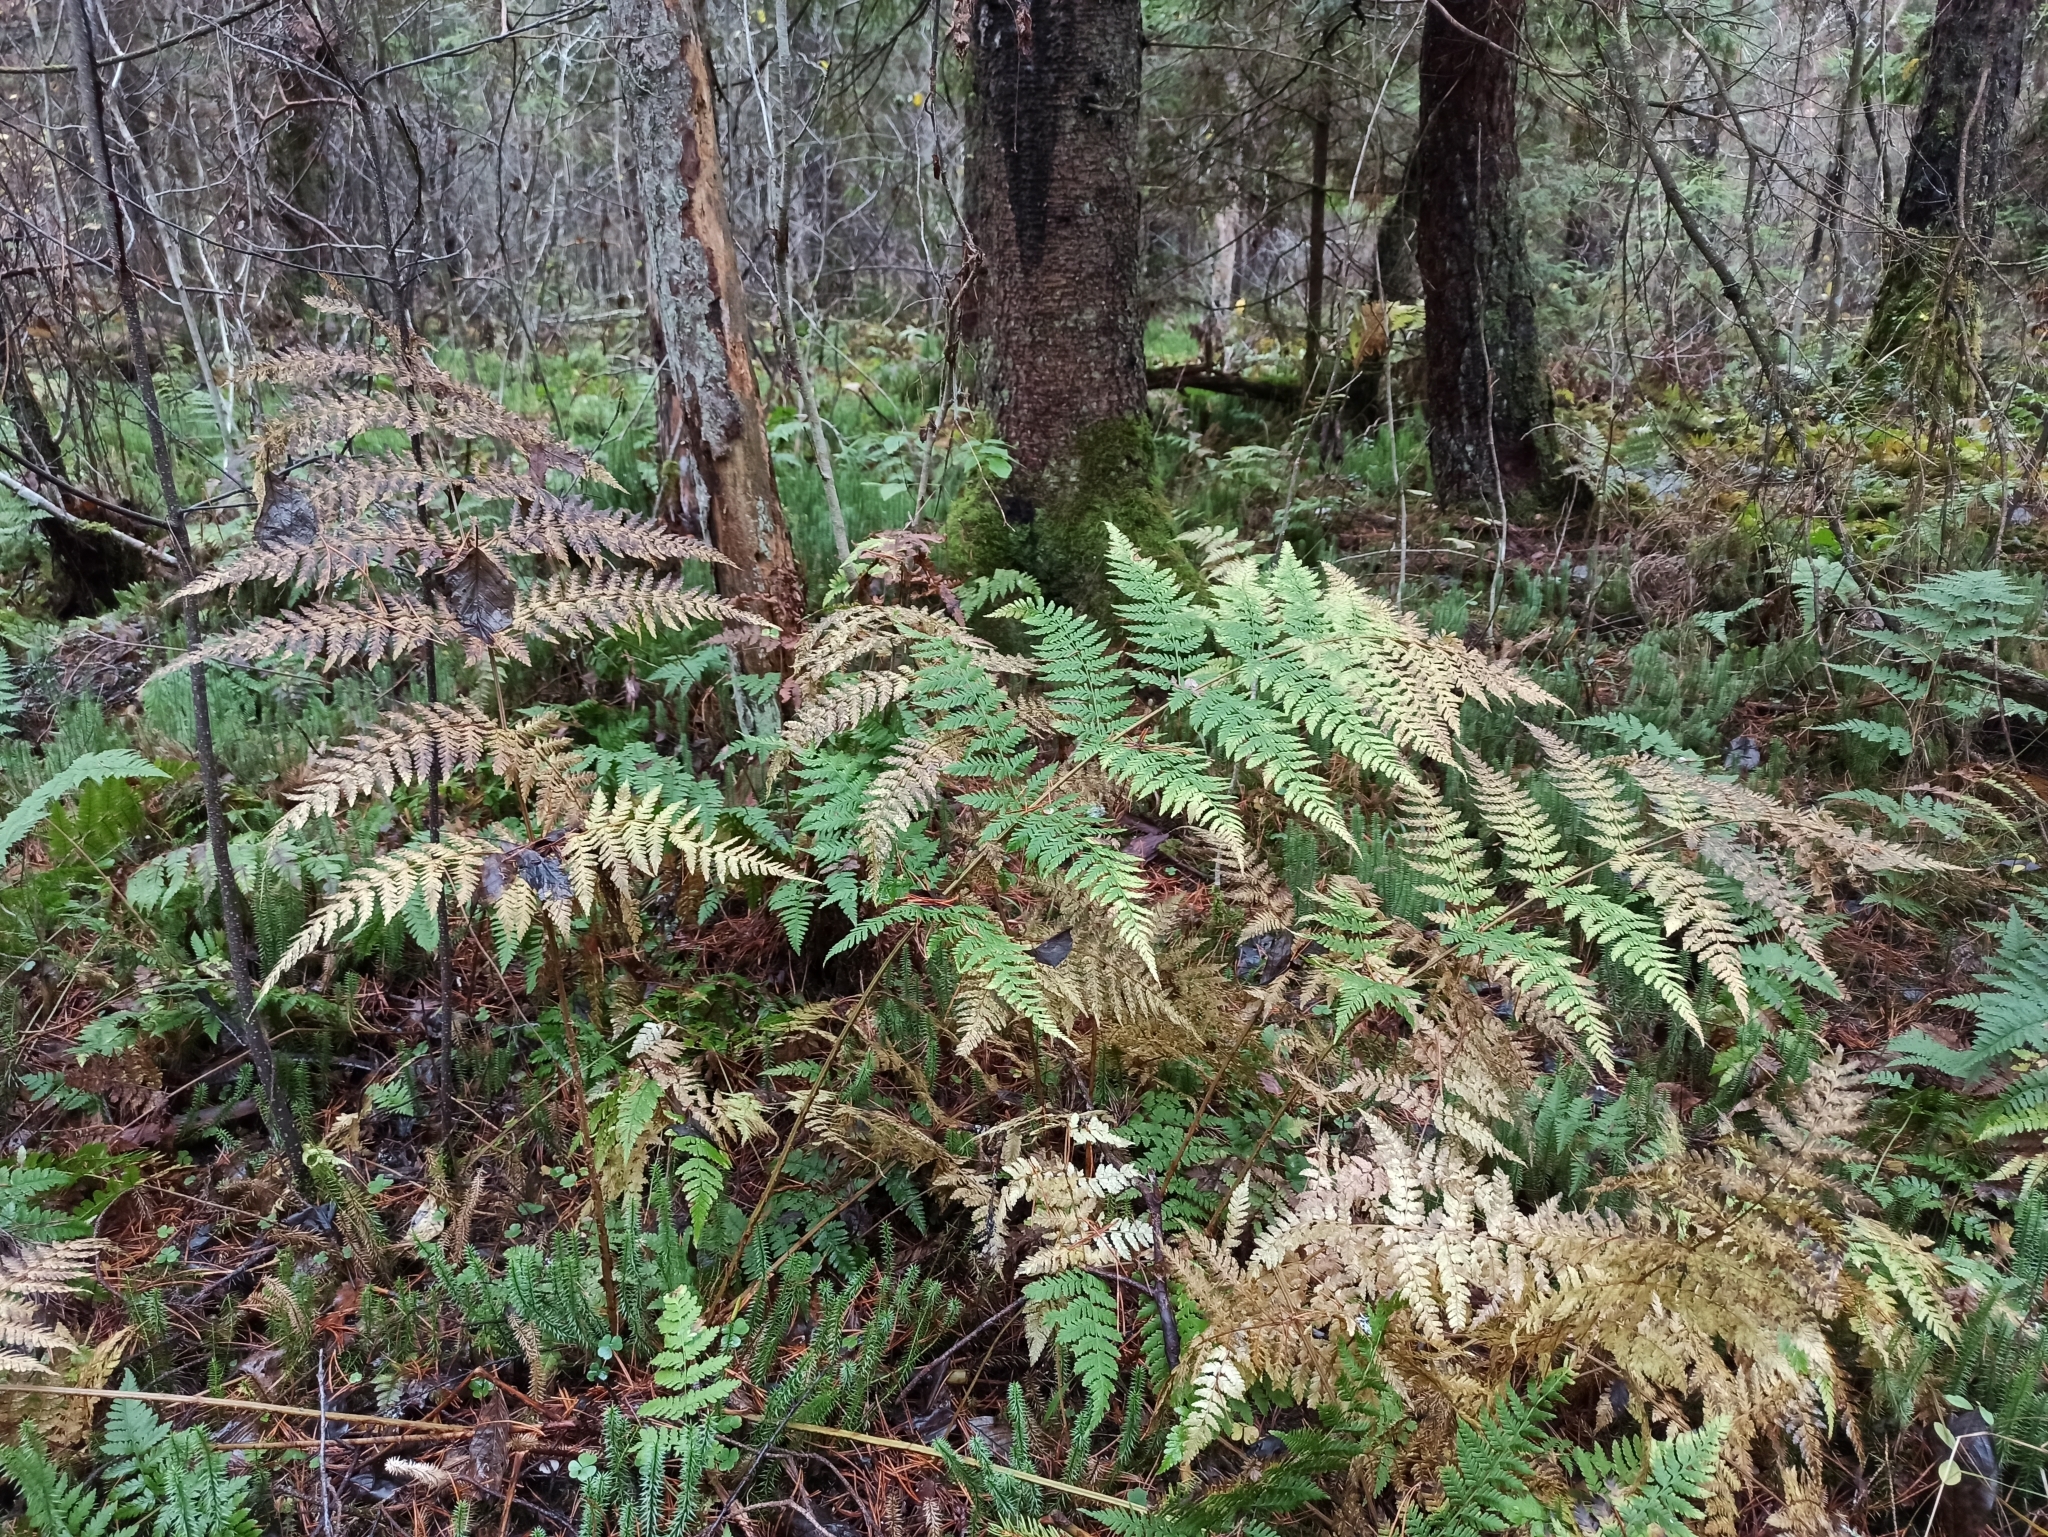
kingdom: Plantae
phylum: Tracheophyta
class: Polypodiopsida
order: Polypodiales
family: Dryopteridaceae
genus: Dryopteris
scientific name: Dryopteris expansa
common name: Northern buckler fern
